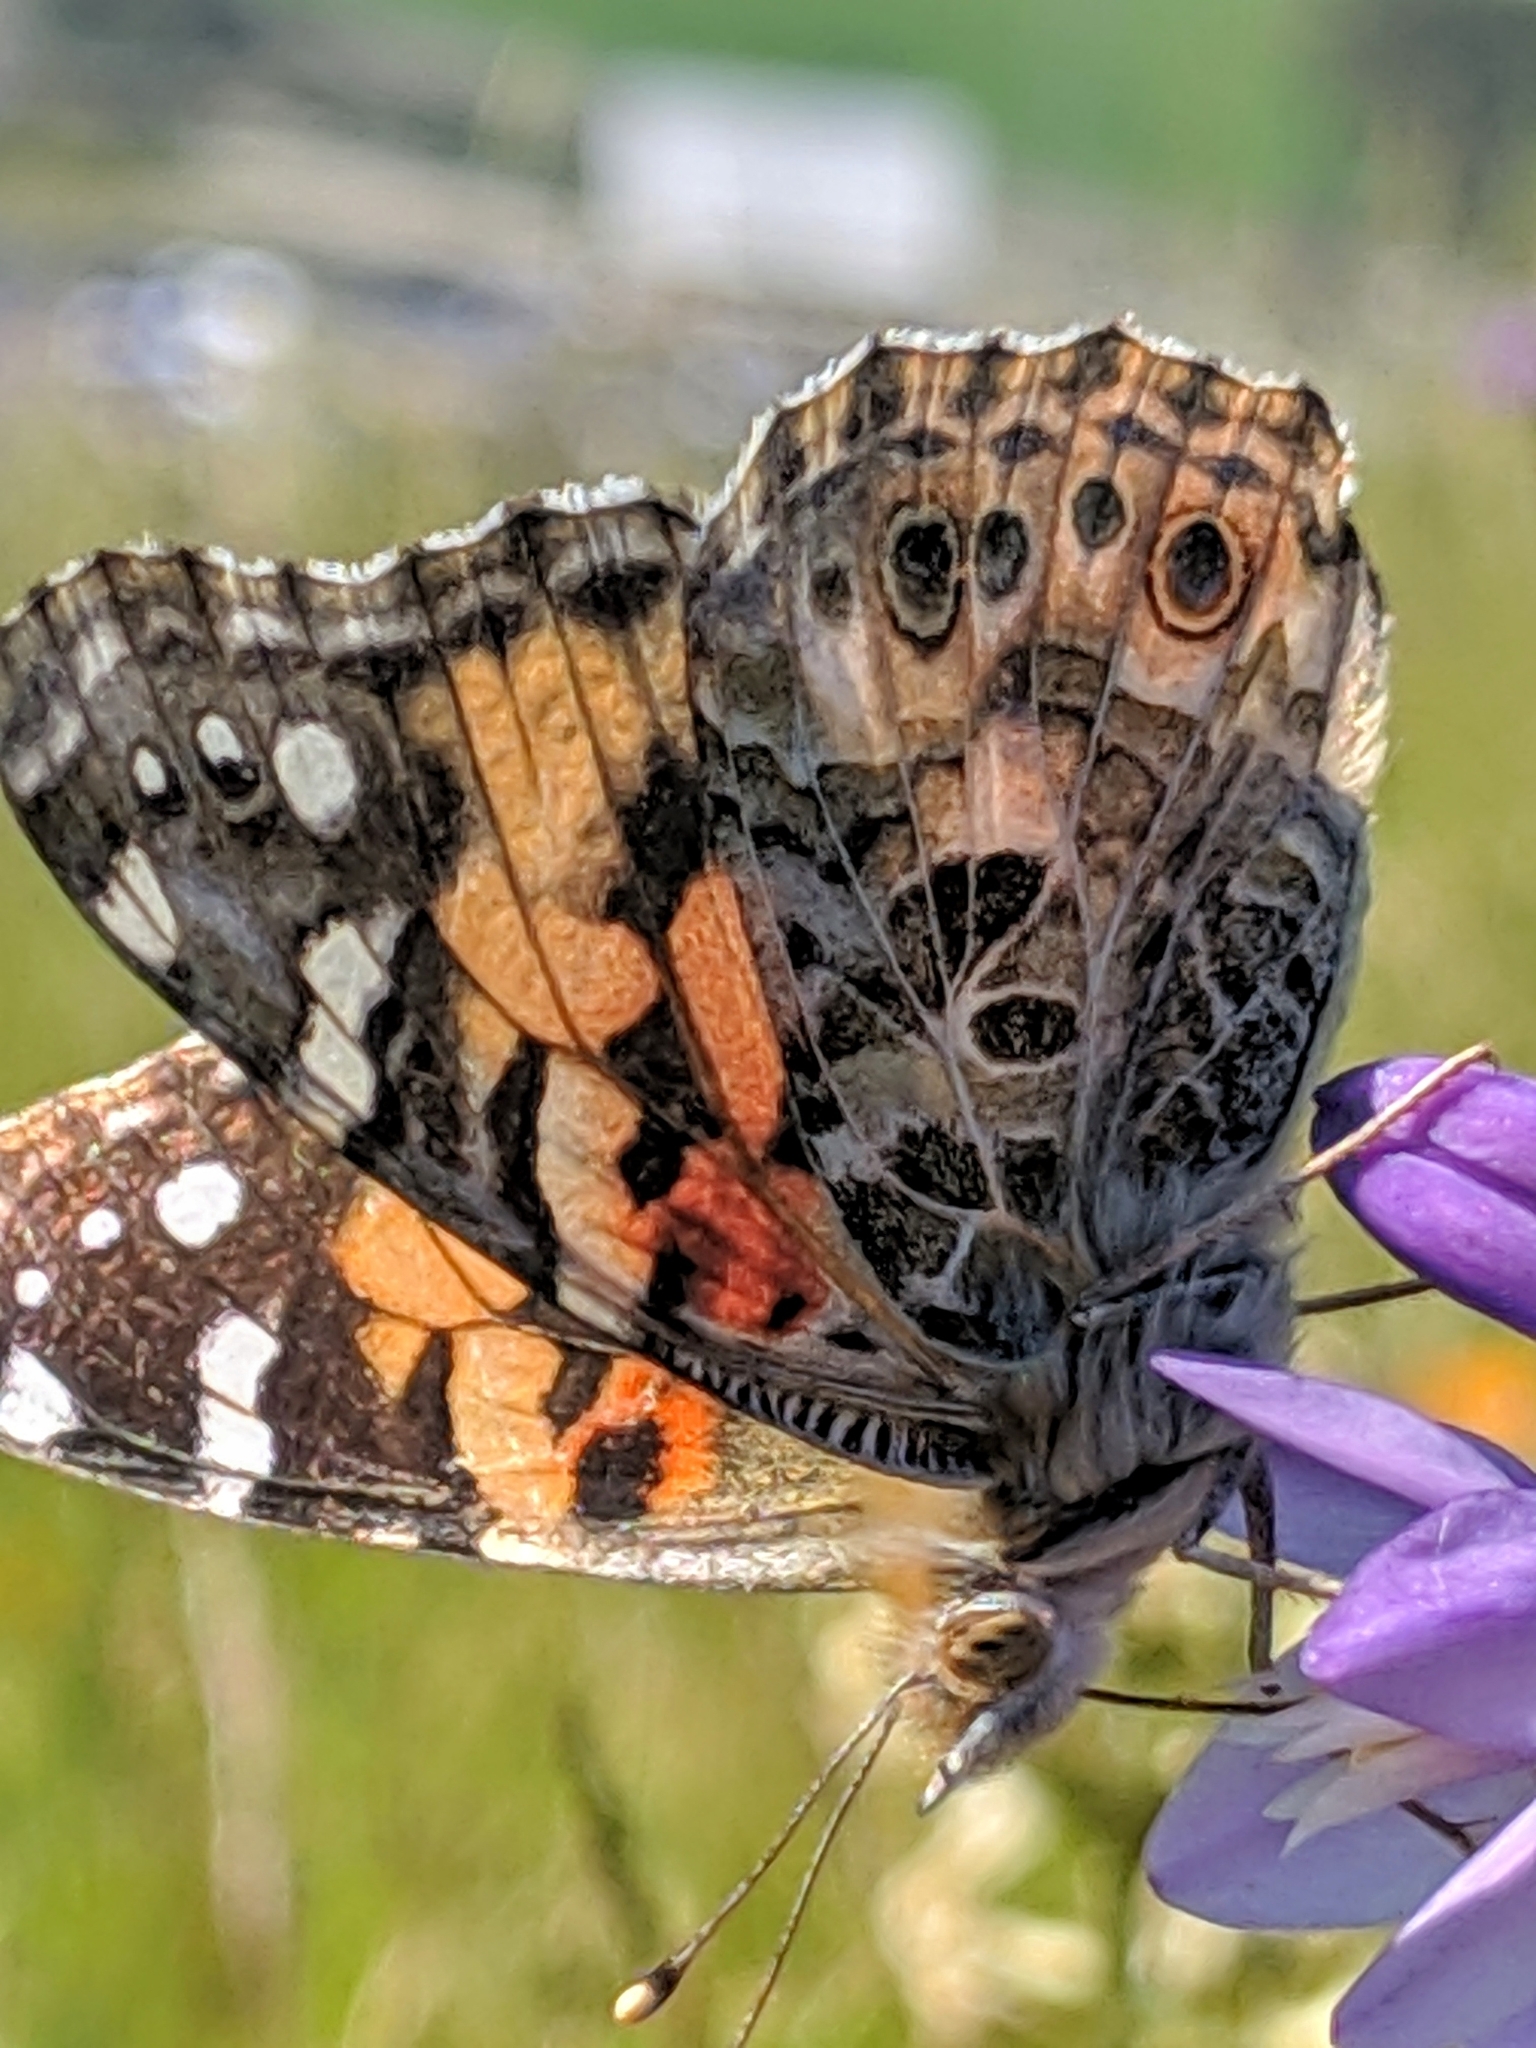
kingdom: Animalia
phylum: Arthropoda
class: Insecta
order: Lepidoptera
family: Nymphalidae
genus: Vanessa
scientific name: Vanessa cardui
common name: Painted lady
